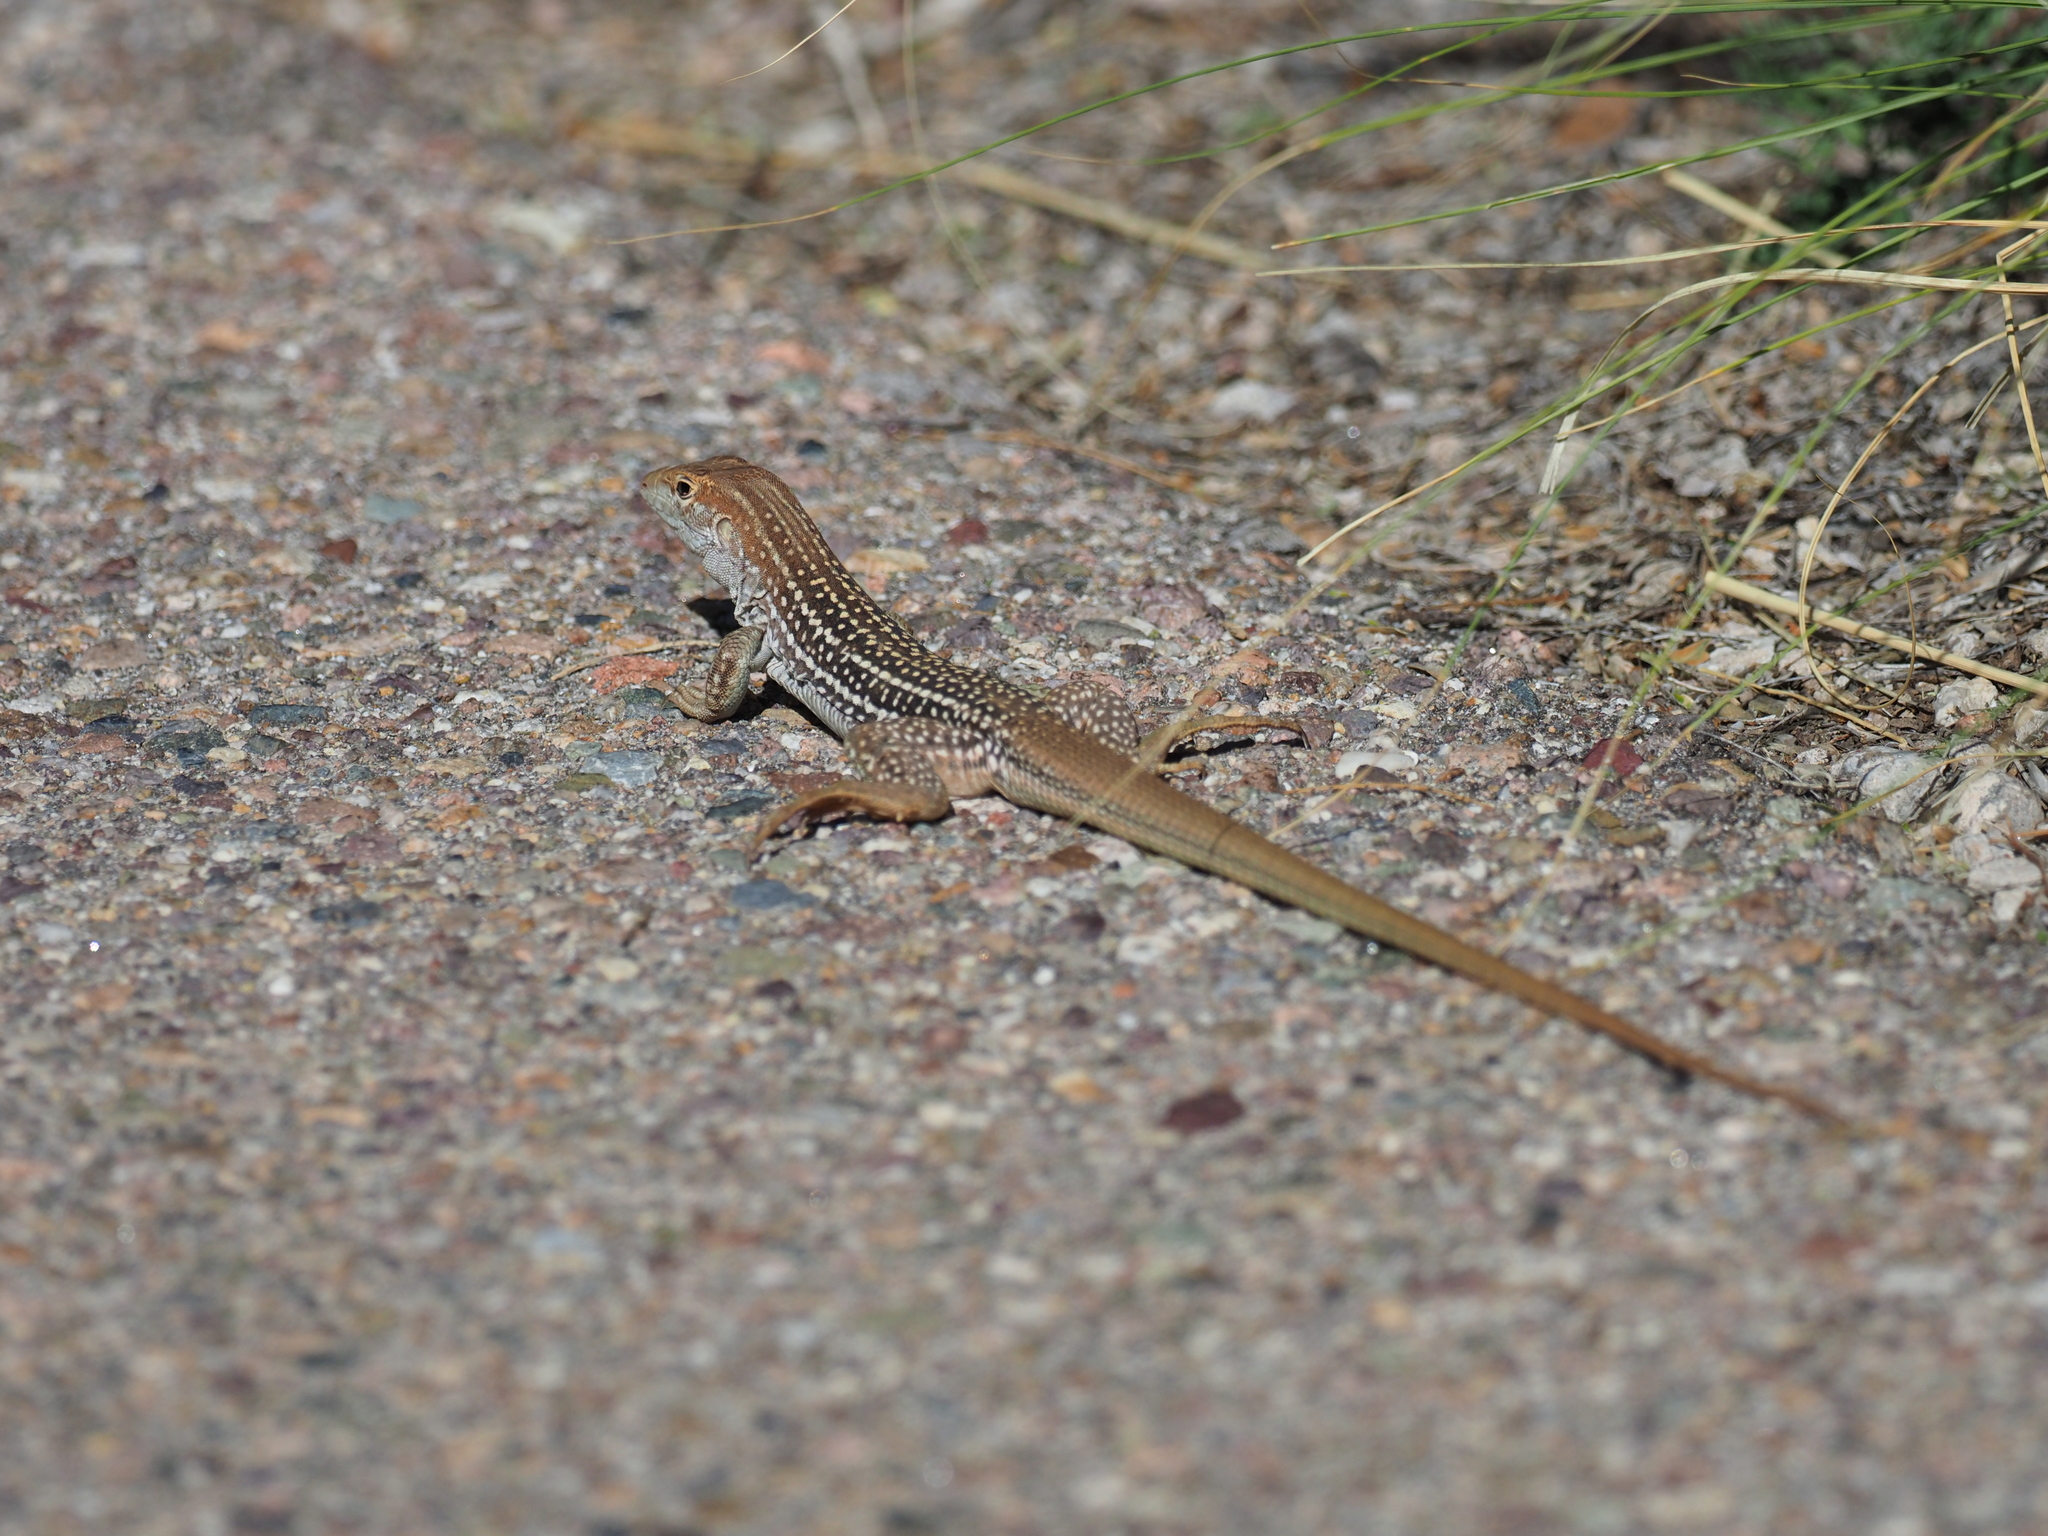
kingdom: Animalia
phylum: Chordata
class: Squamata
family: Teiidae
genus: Aspidoscelis
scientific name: Aspidoscelis stictogrammus
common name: Giant spotted whiptail
